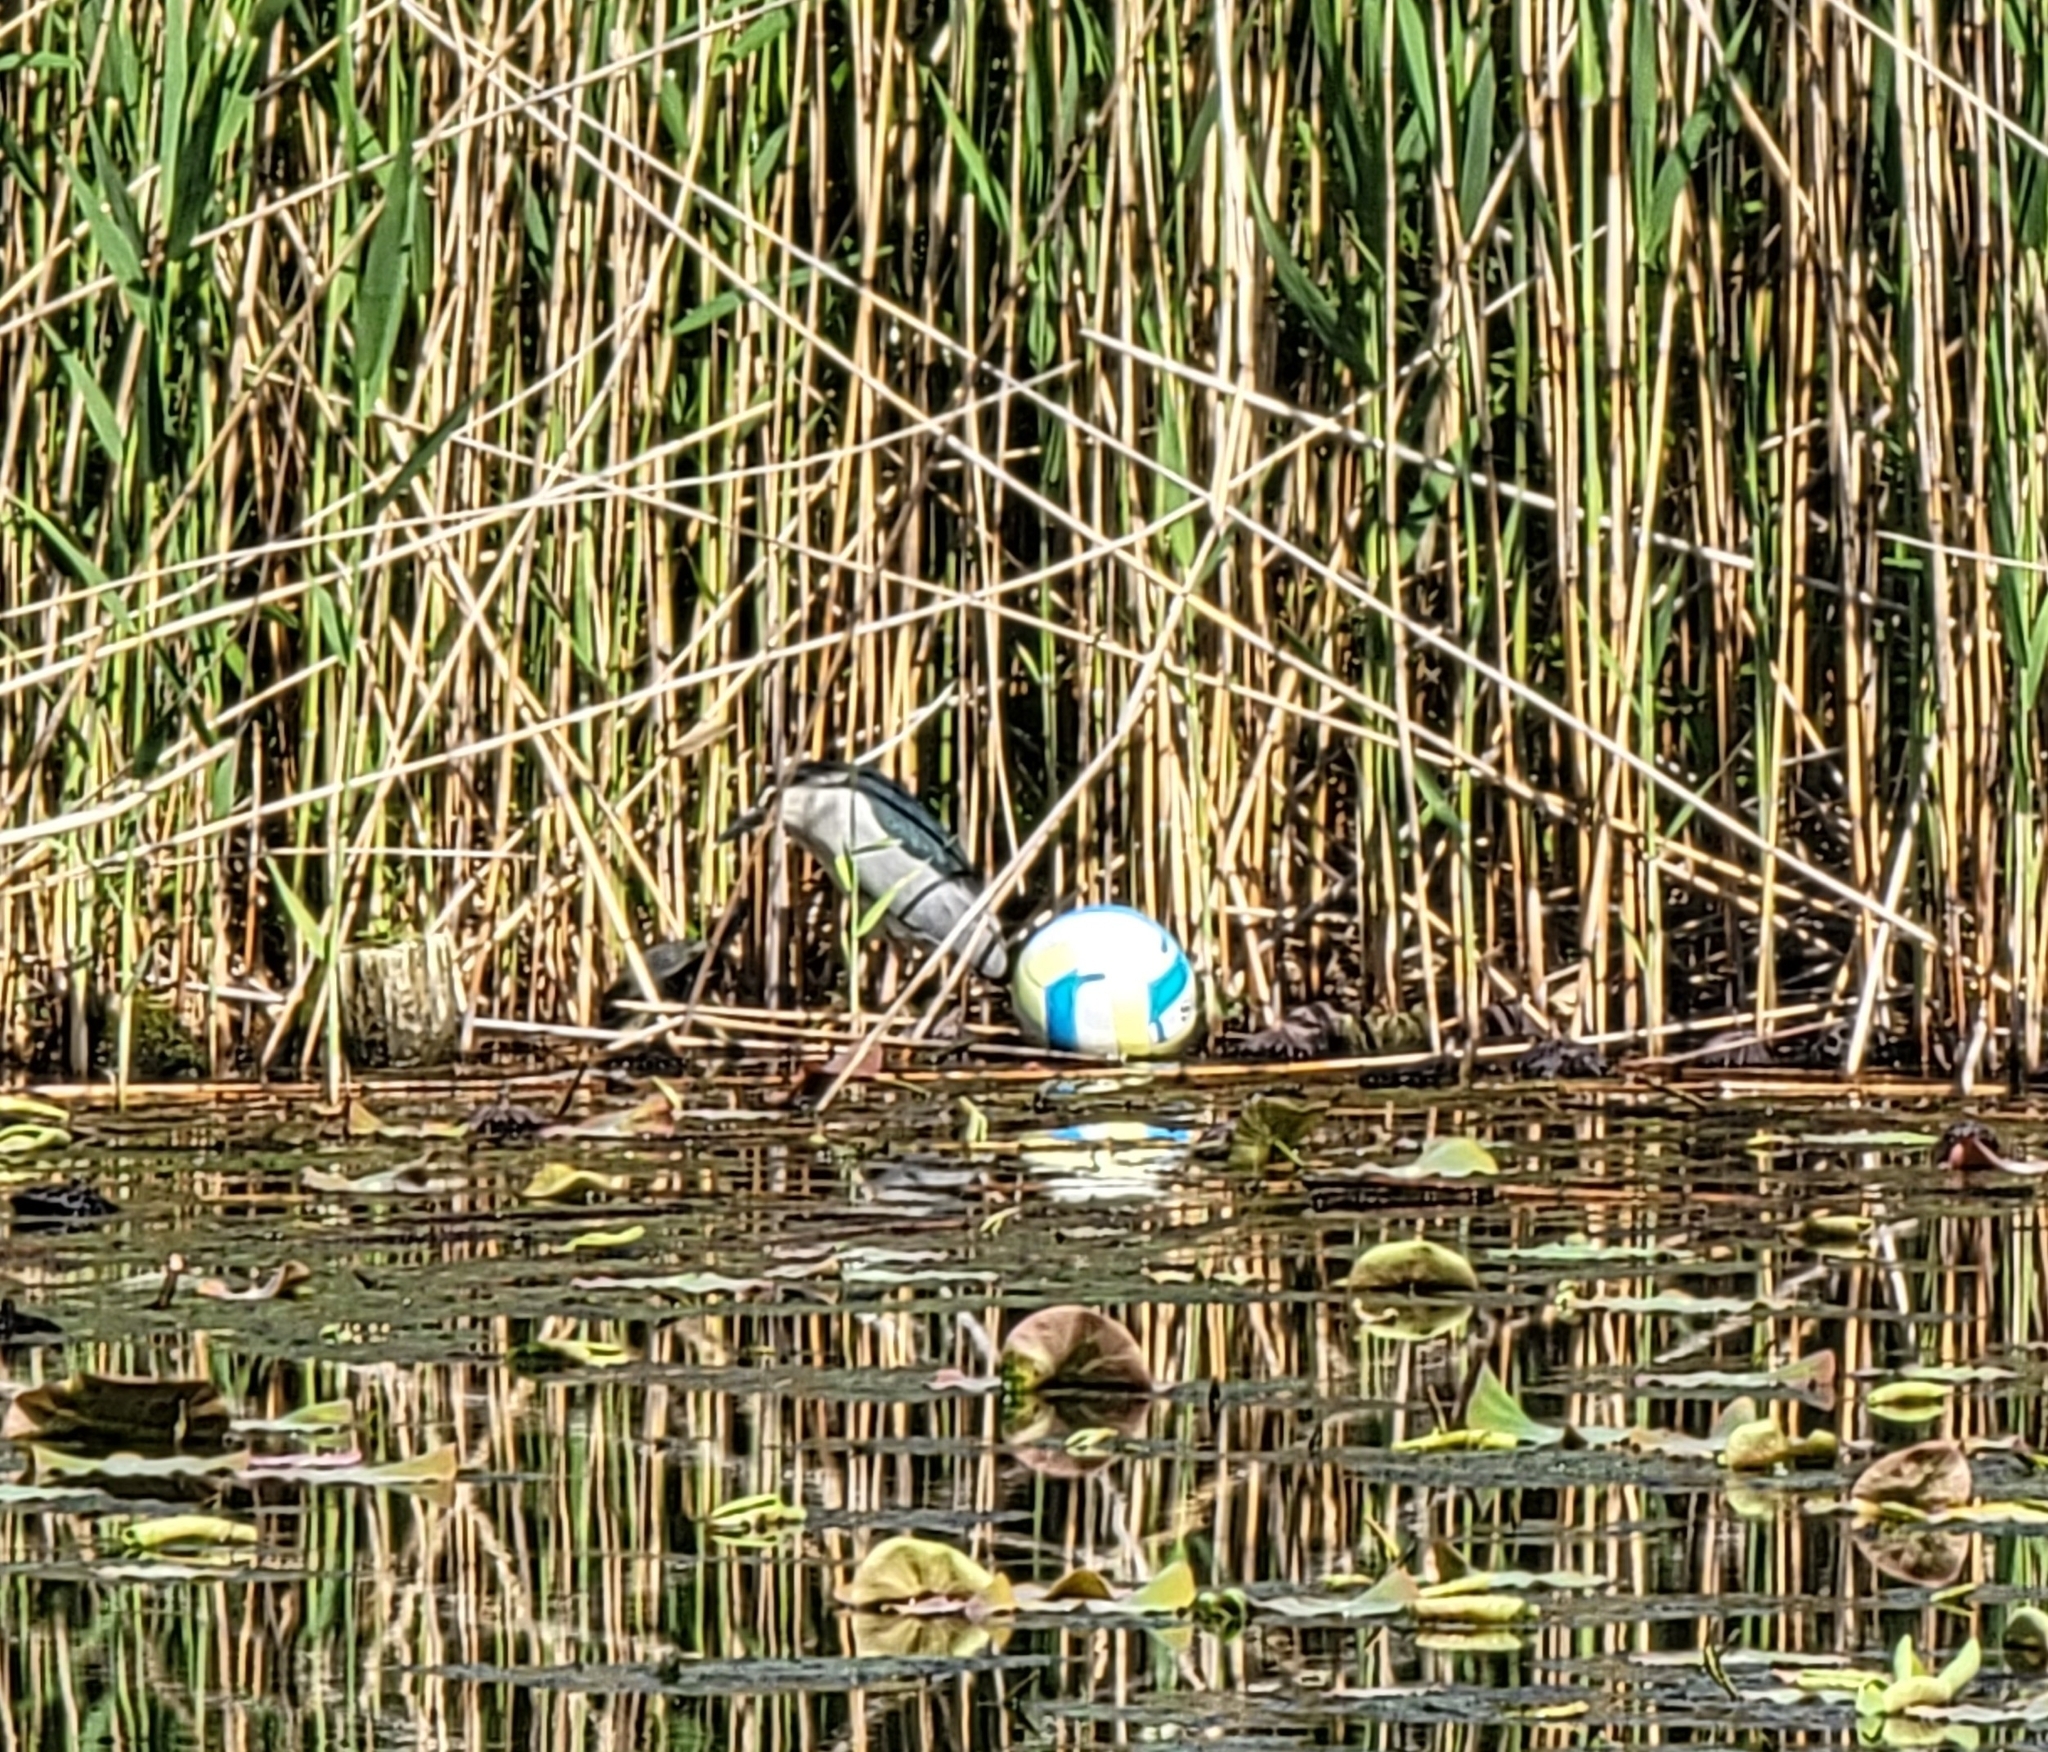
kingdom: Animalia
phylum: Chordata
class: Aves
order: Pelecaniformes
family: Ardeidae
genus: Nycticorax
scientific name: Nycticorax nycticorax
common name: Black-crowned night heron
